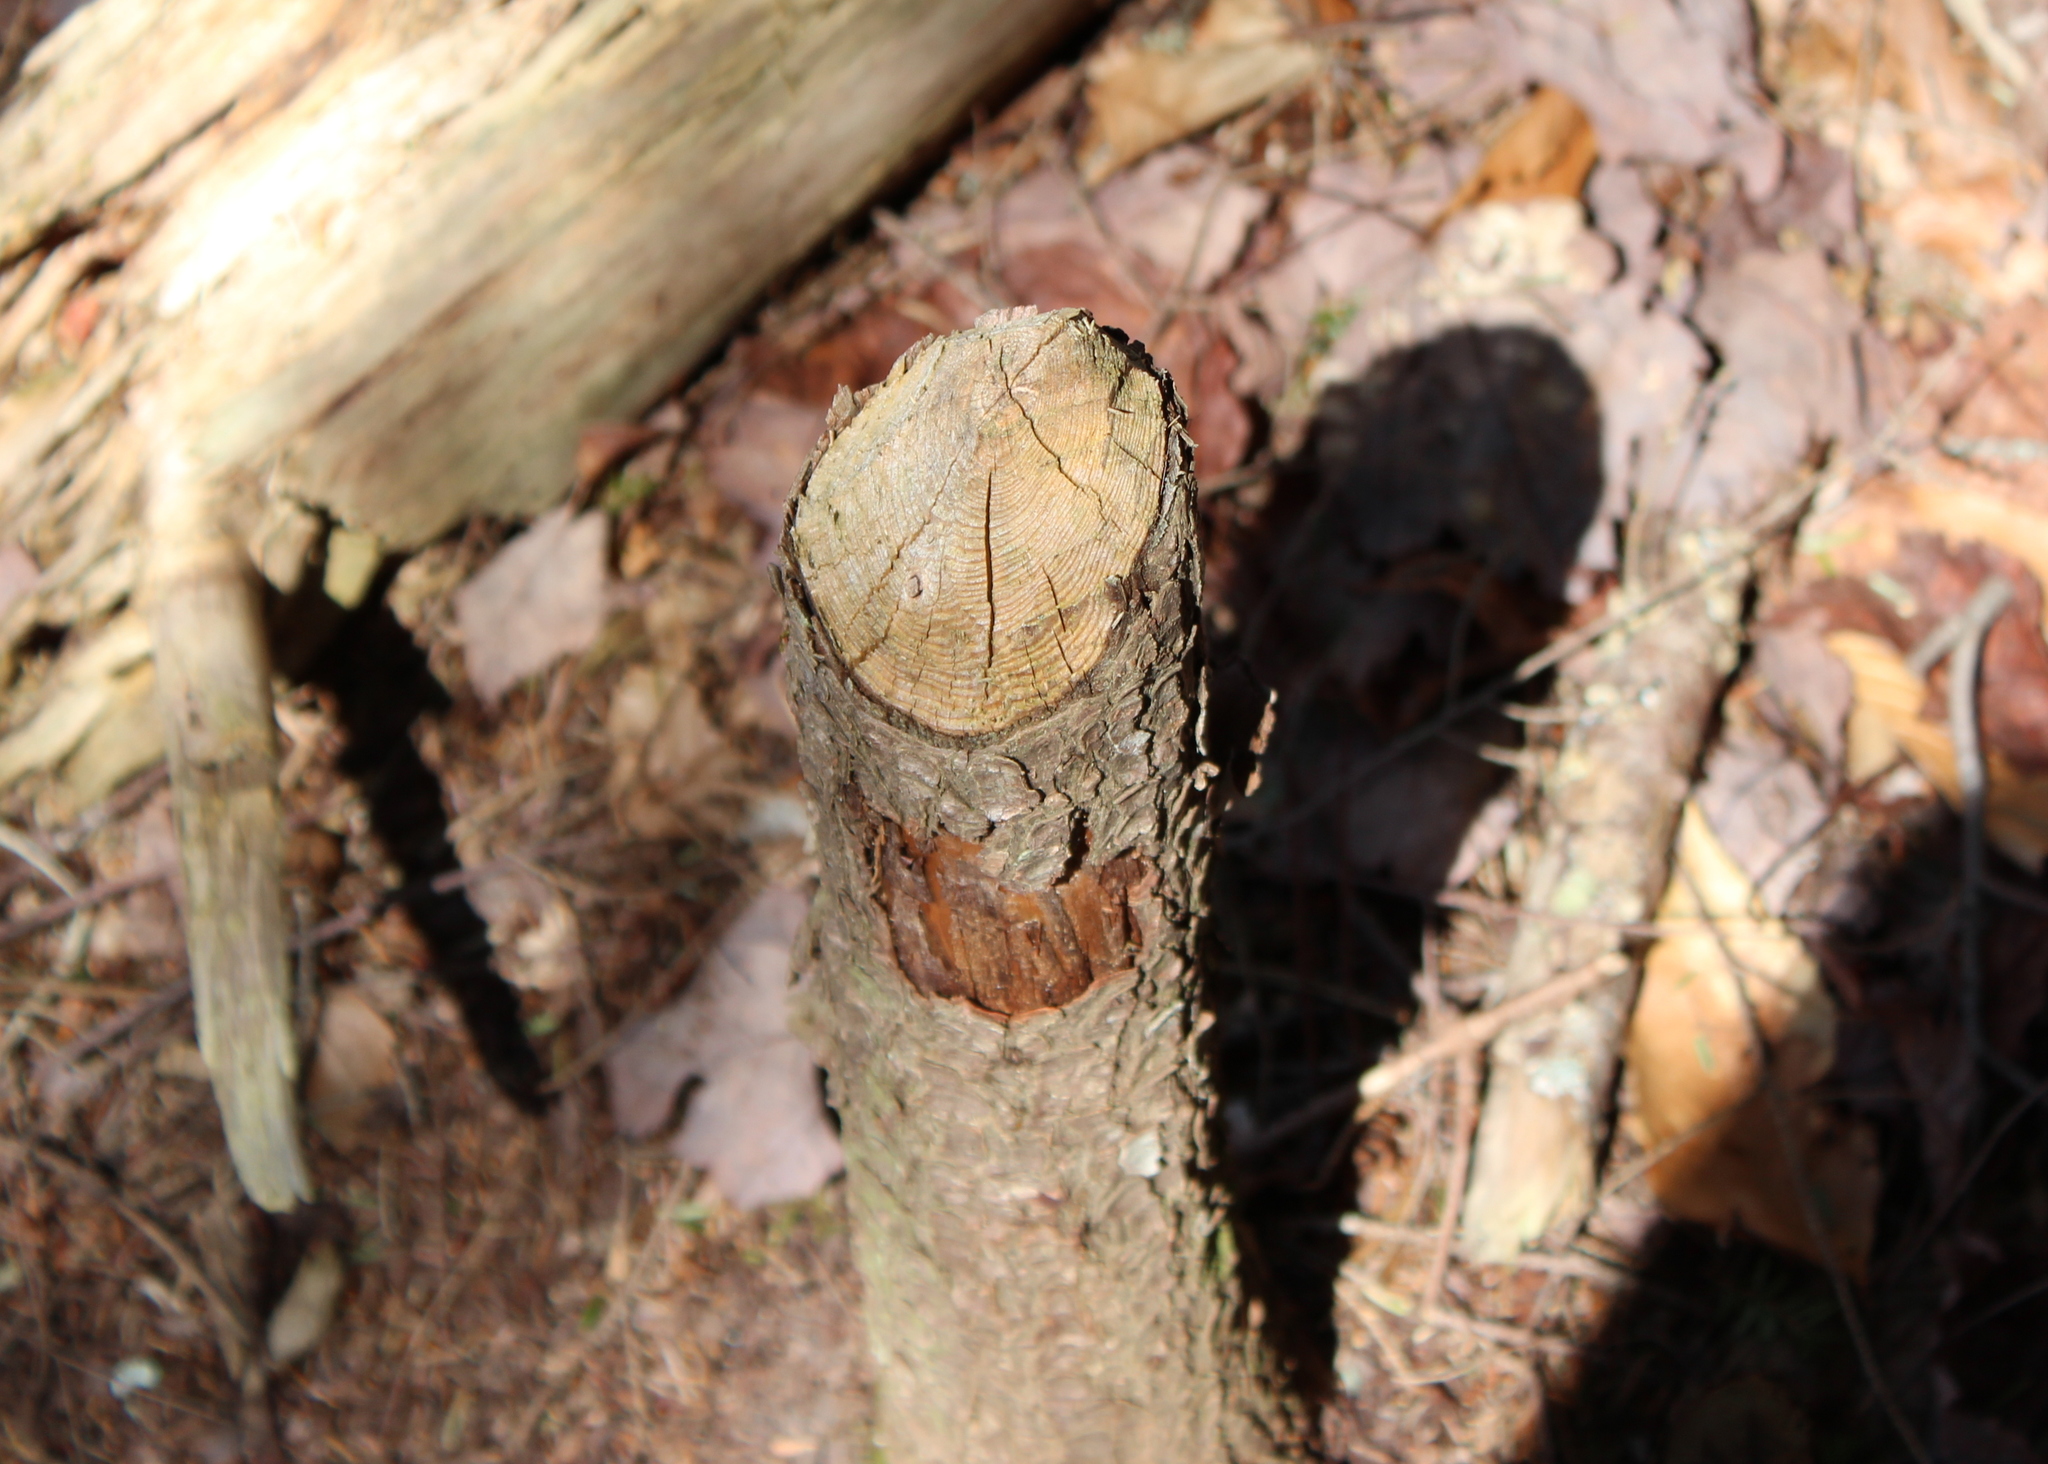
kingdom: Animalia
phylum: Chordata
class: Mammalia
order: Rodentia
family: Castoridae
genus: Castor
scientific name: Castor canadensis
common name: American beaver
